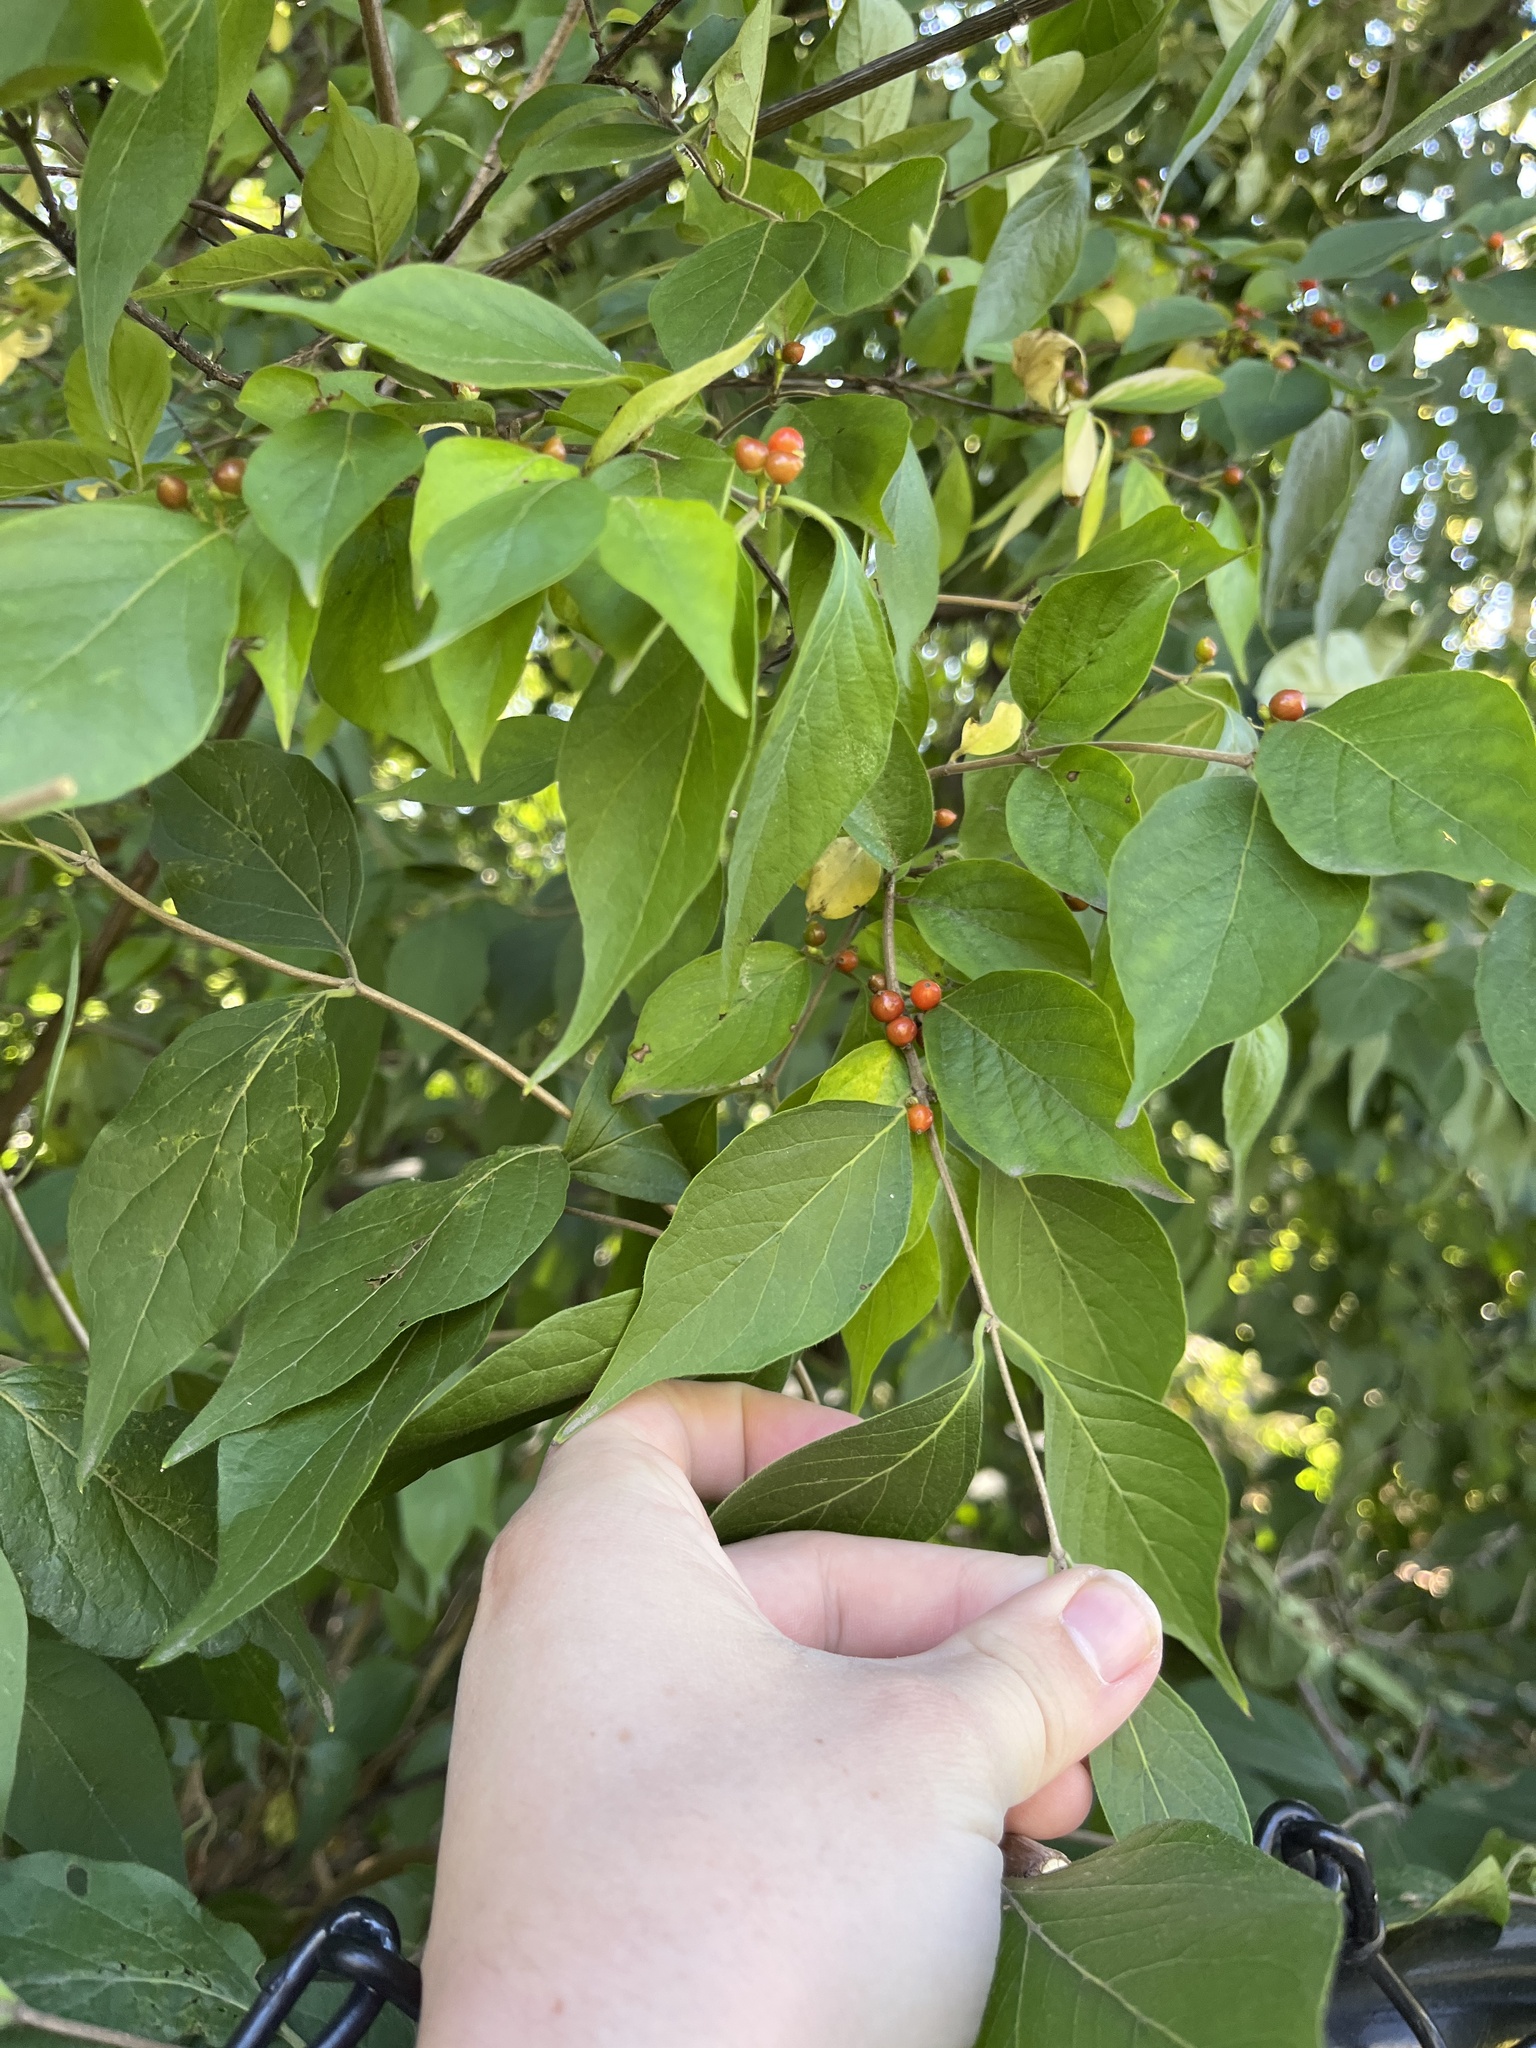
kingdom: Plantae
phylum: Tracheophyta
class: Magnoliopsida
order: Dipsacales
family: Caprifoliaceae
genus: Lonicera
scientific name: Lonicera maackii
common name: Amur honeysuckle
